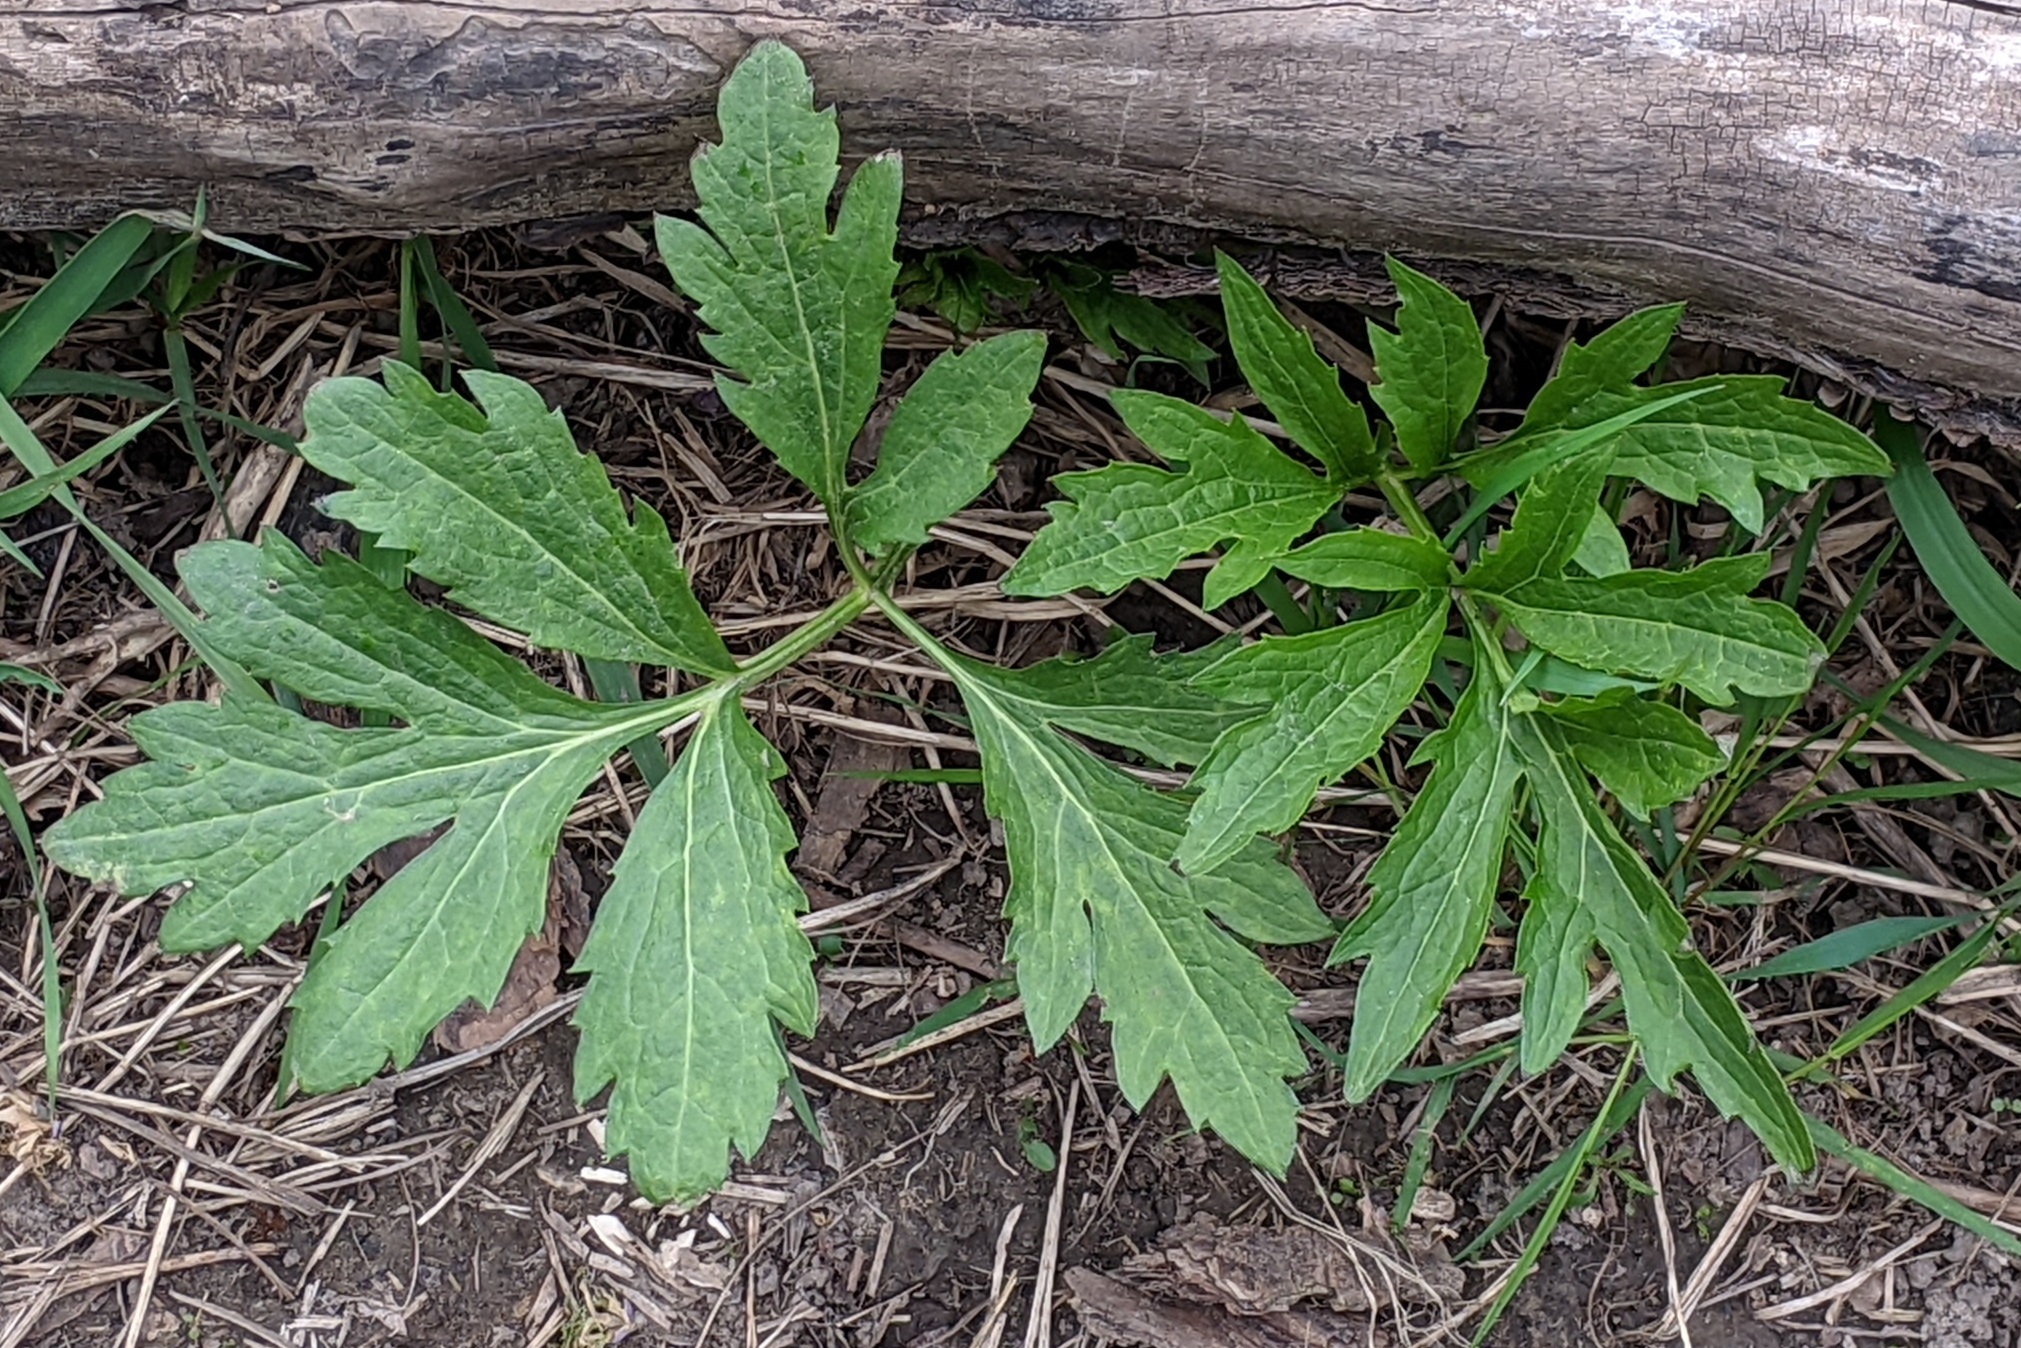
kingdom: Plantae
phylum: Tracheophyta
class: Magnoliopsida
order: Asterales
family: Asteraceae
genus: Rudbeckia
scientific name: Rudbeckia laciniata
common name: Coneflower
